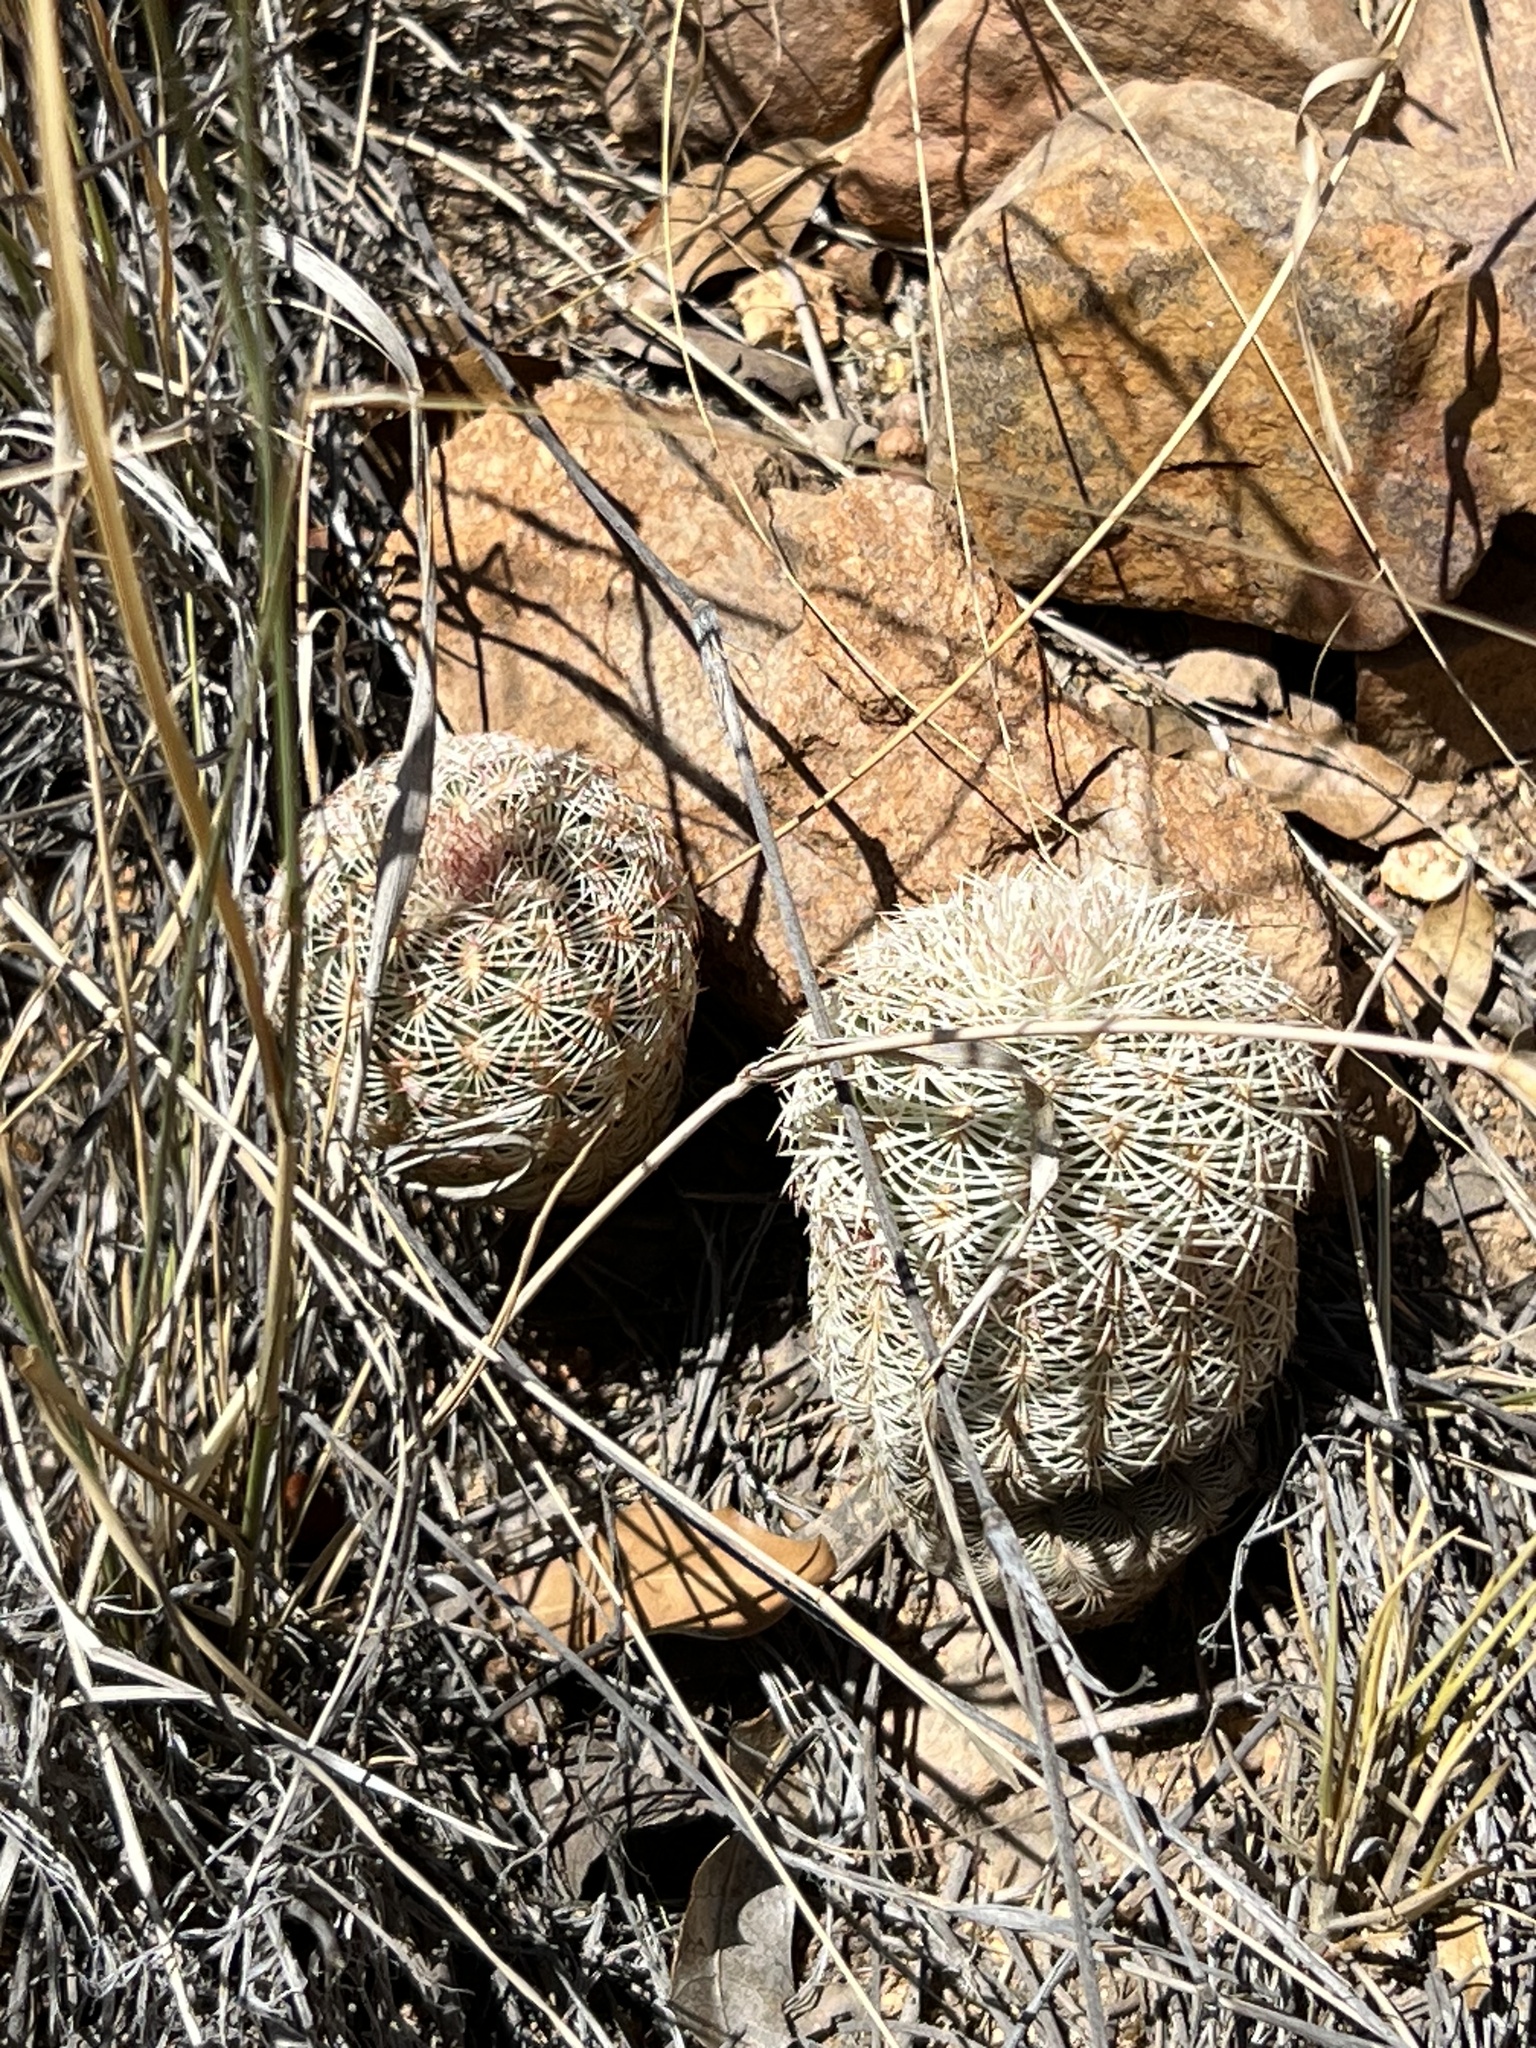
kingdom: Plantae
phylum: Tracheophyta
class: Magnoliopsida
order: Caryophyllales
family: Cactaceae
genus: Echinocereus
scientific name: Echinocereus rigidissimus
